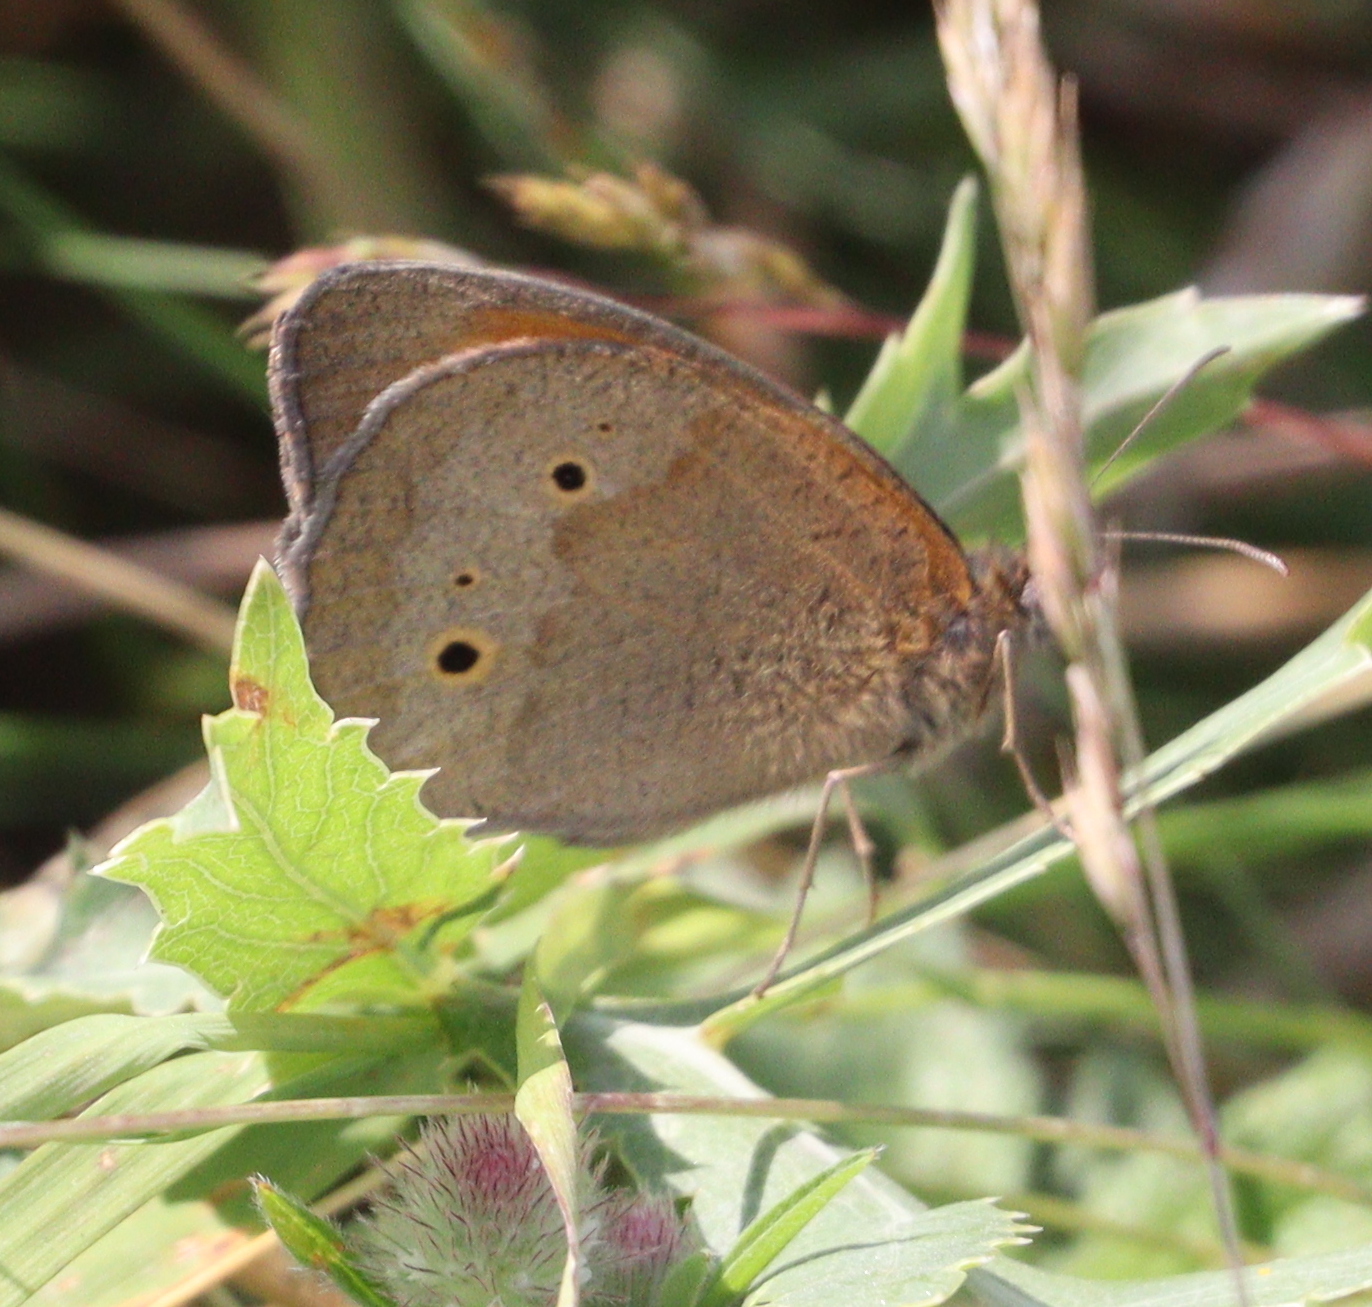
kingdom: Animalia
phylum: Arthropoda
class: Insecta
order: Lepidoptera
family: Nymphalidae
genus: Maniola
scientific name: Maniola jurtina
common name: Meadow brown
